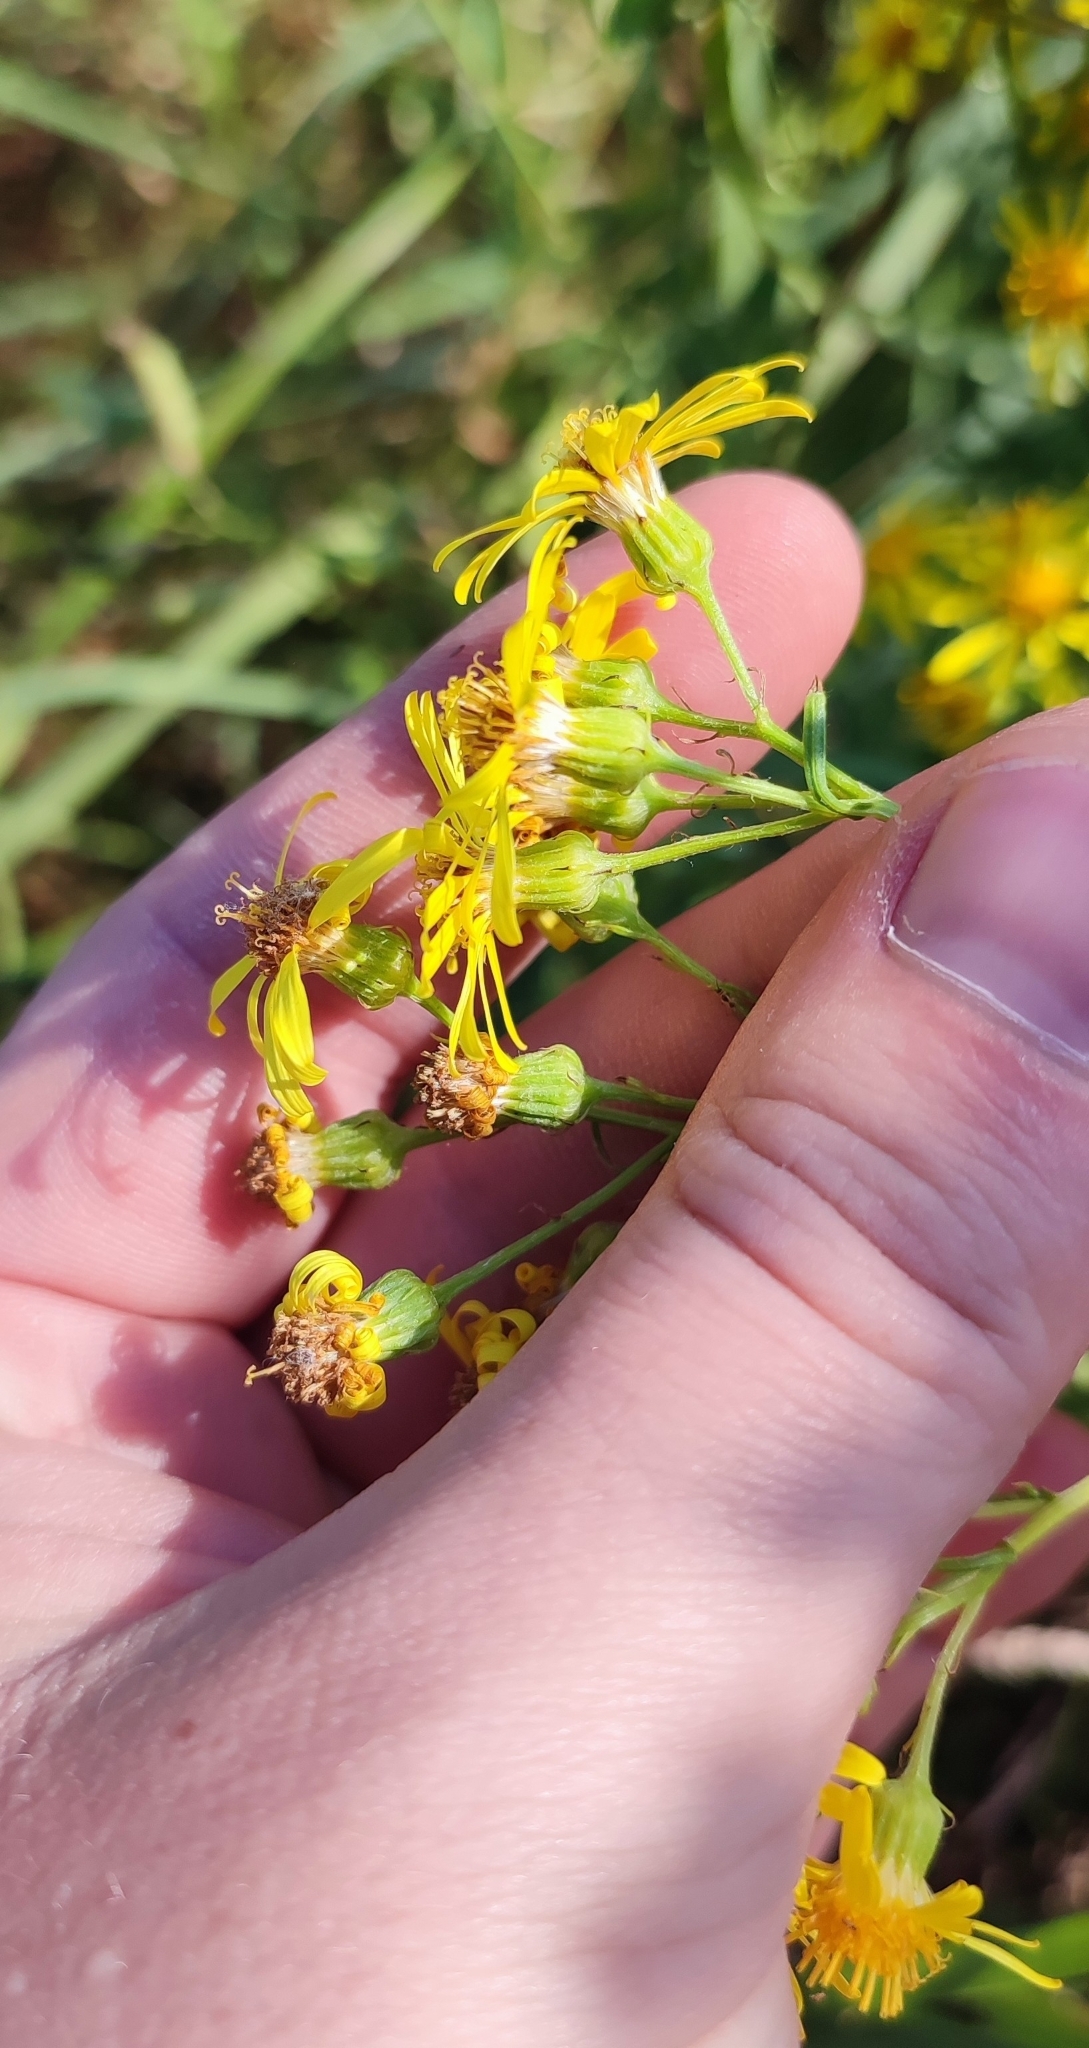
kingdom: Plantae
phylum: Tracheophyta
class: Magnoliopsida
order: Asterales
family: Asteraceae
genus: Jacobaea
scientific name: Jacobaea erucifolia
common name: Hoary ragwort
